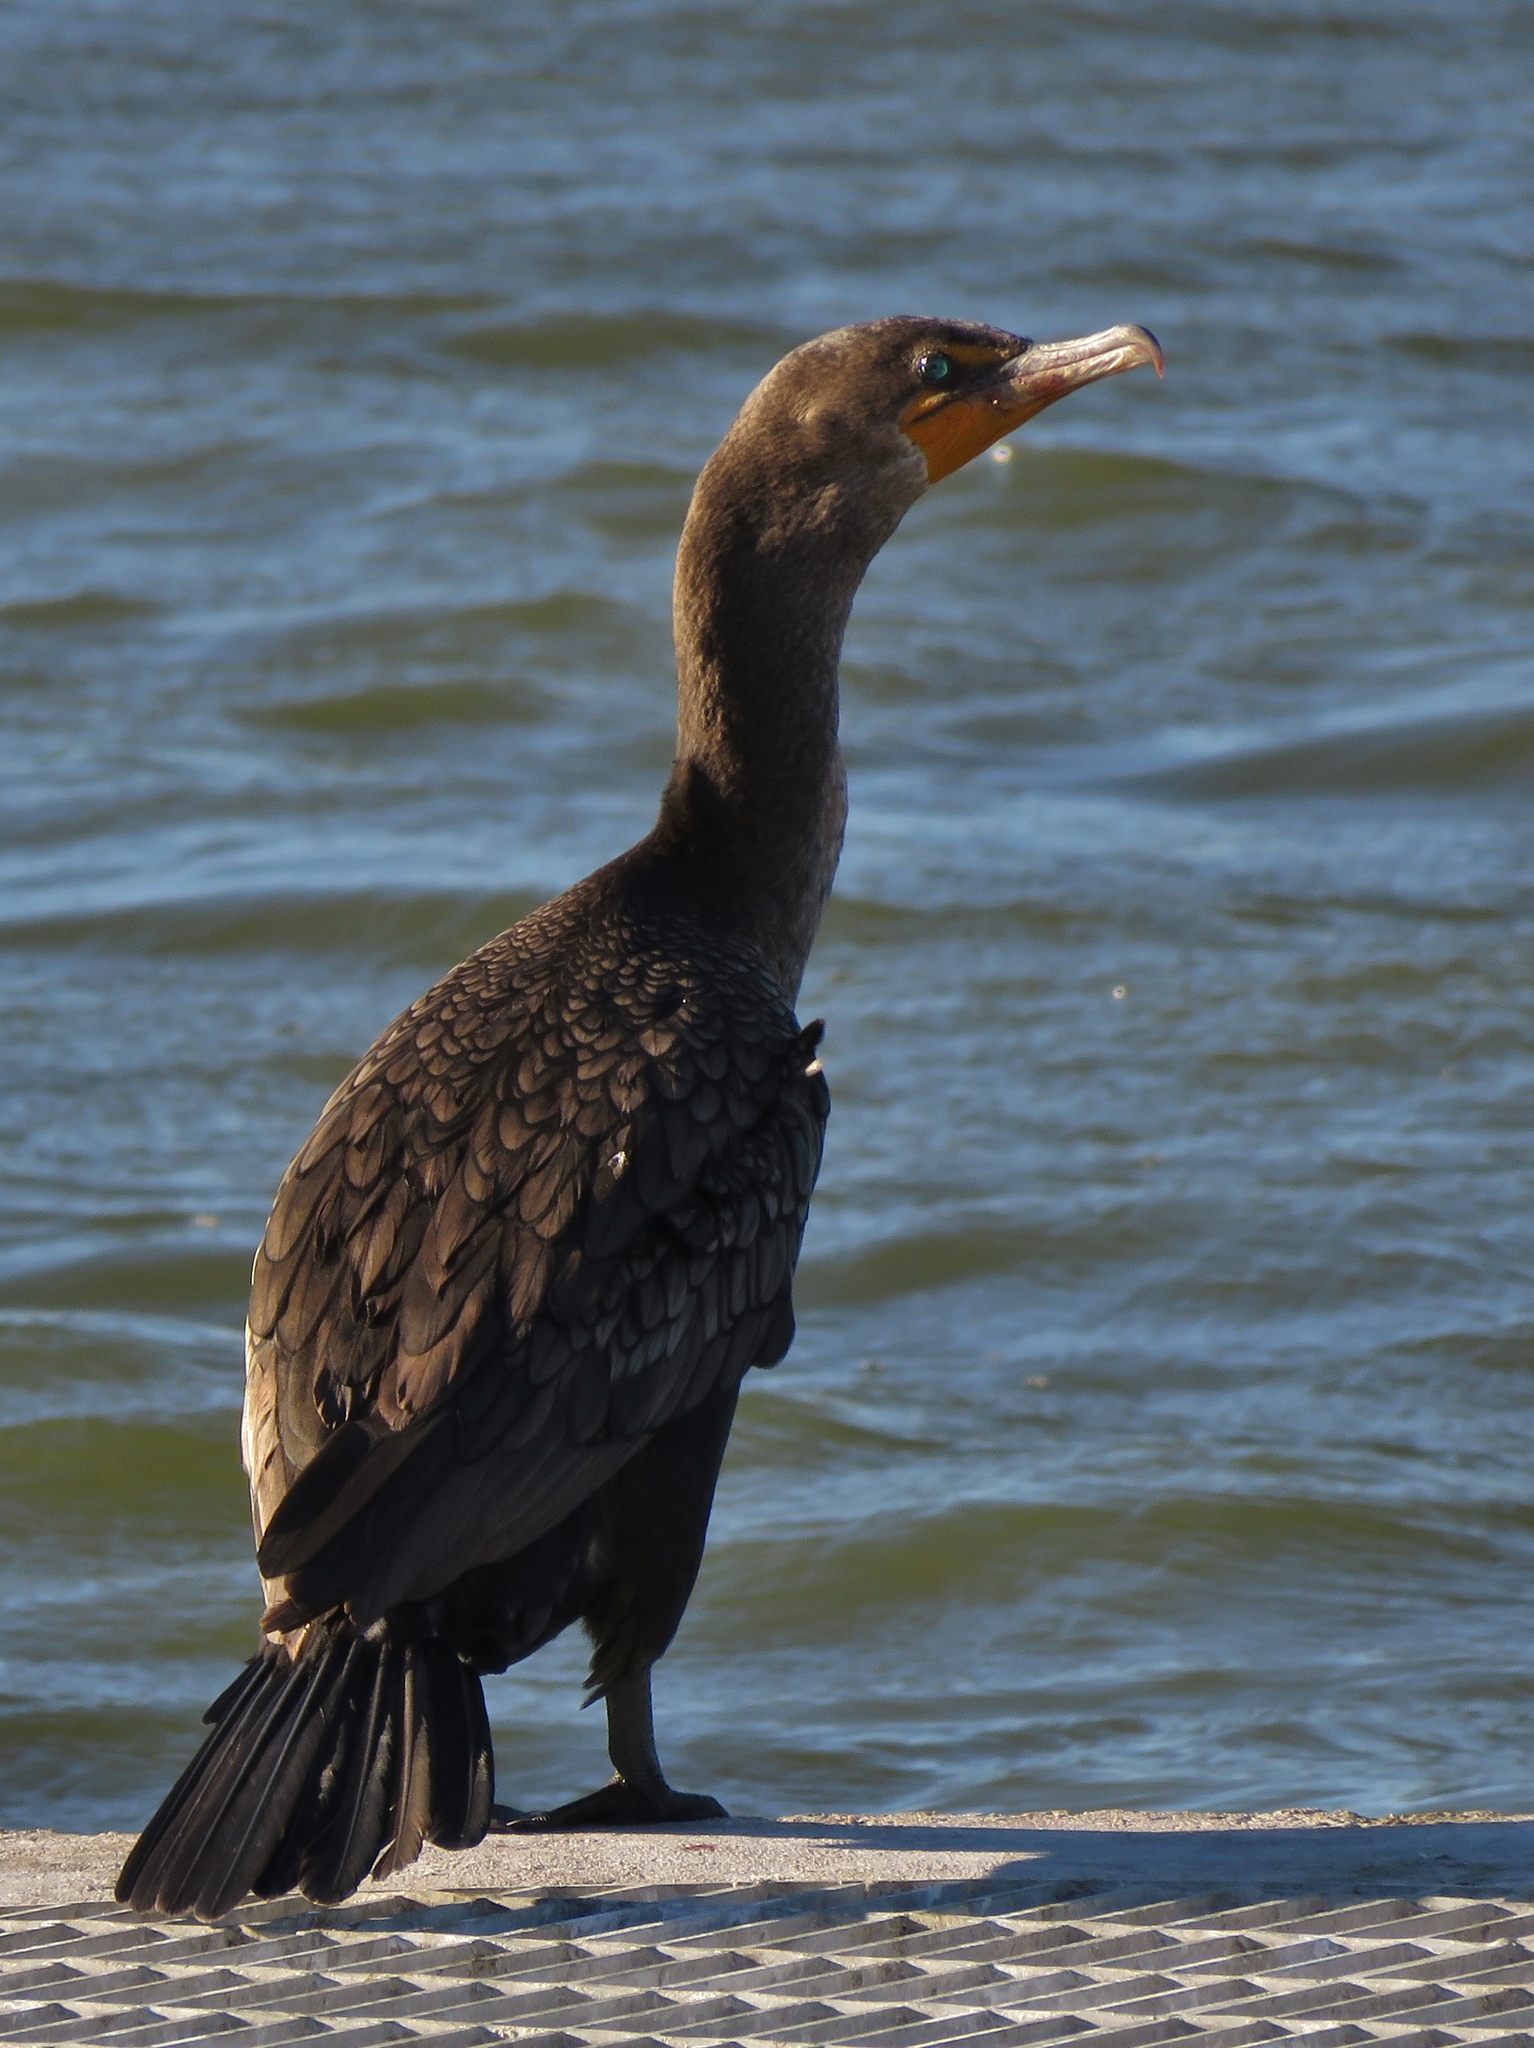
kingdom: Animalia
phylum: Chordata
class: Aves
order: Suliformes
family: Phalacrocoracidae
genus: Phalacrocorax
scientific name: Phalacrocorax auritus
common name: Double-crested cormorant
